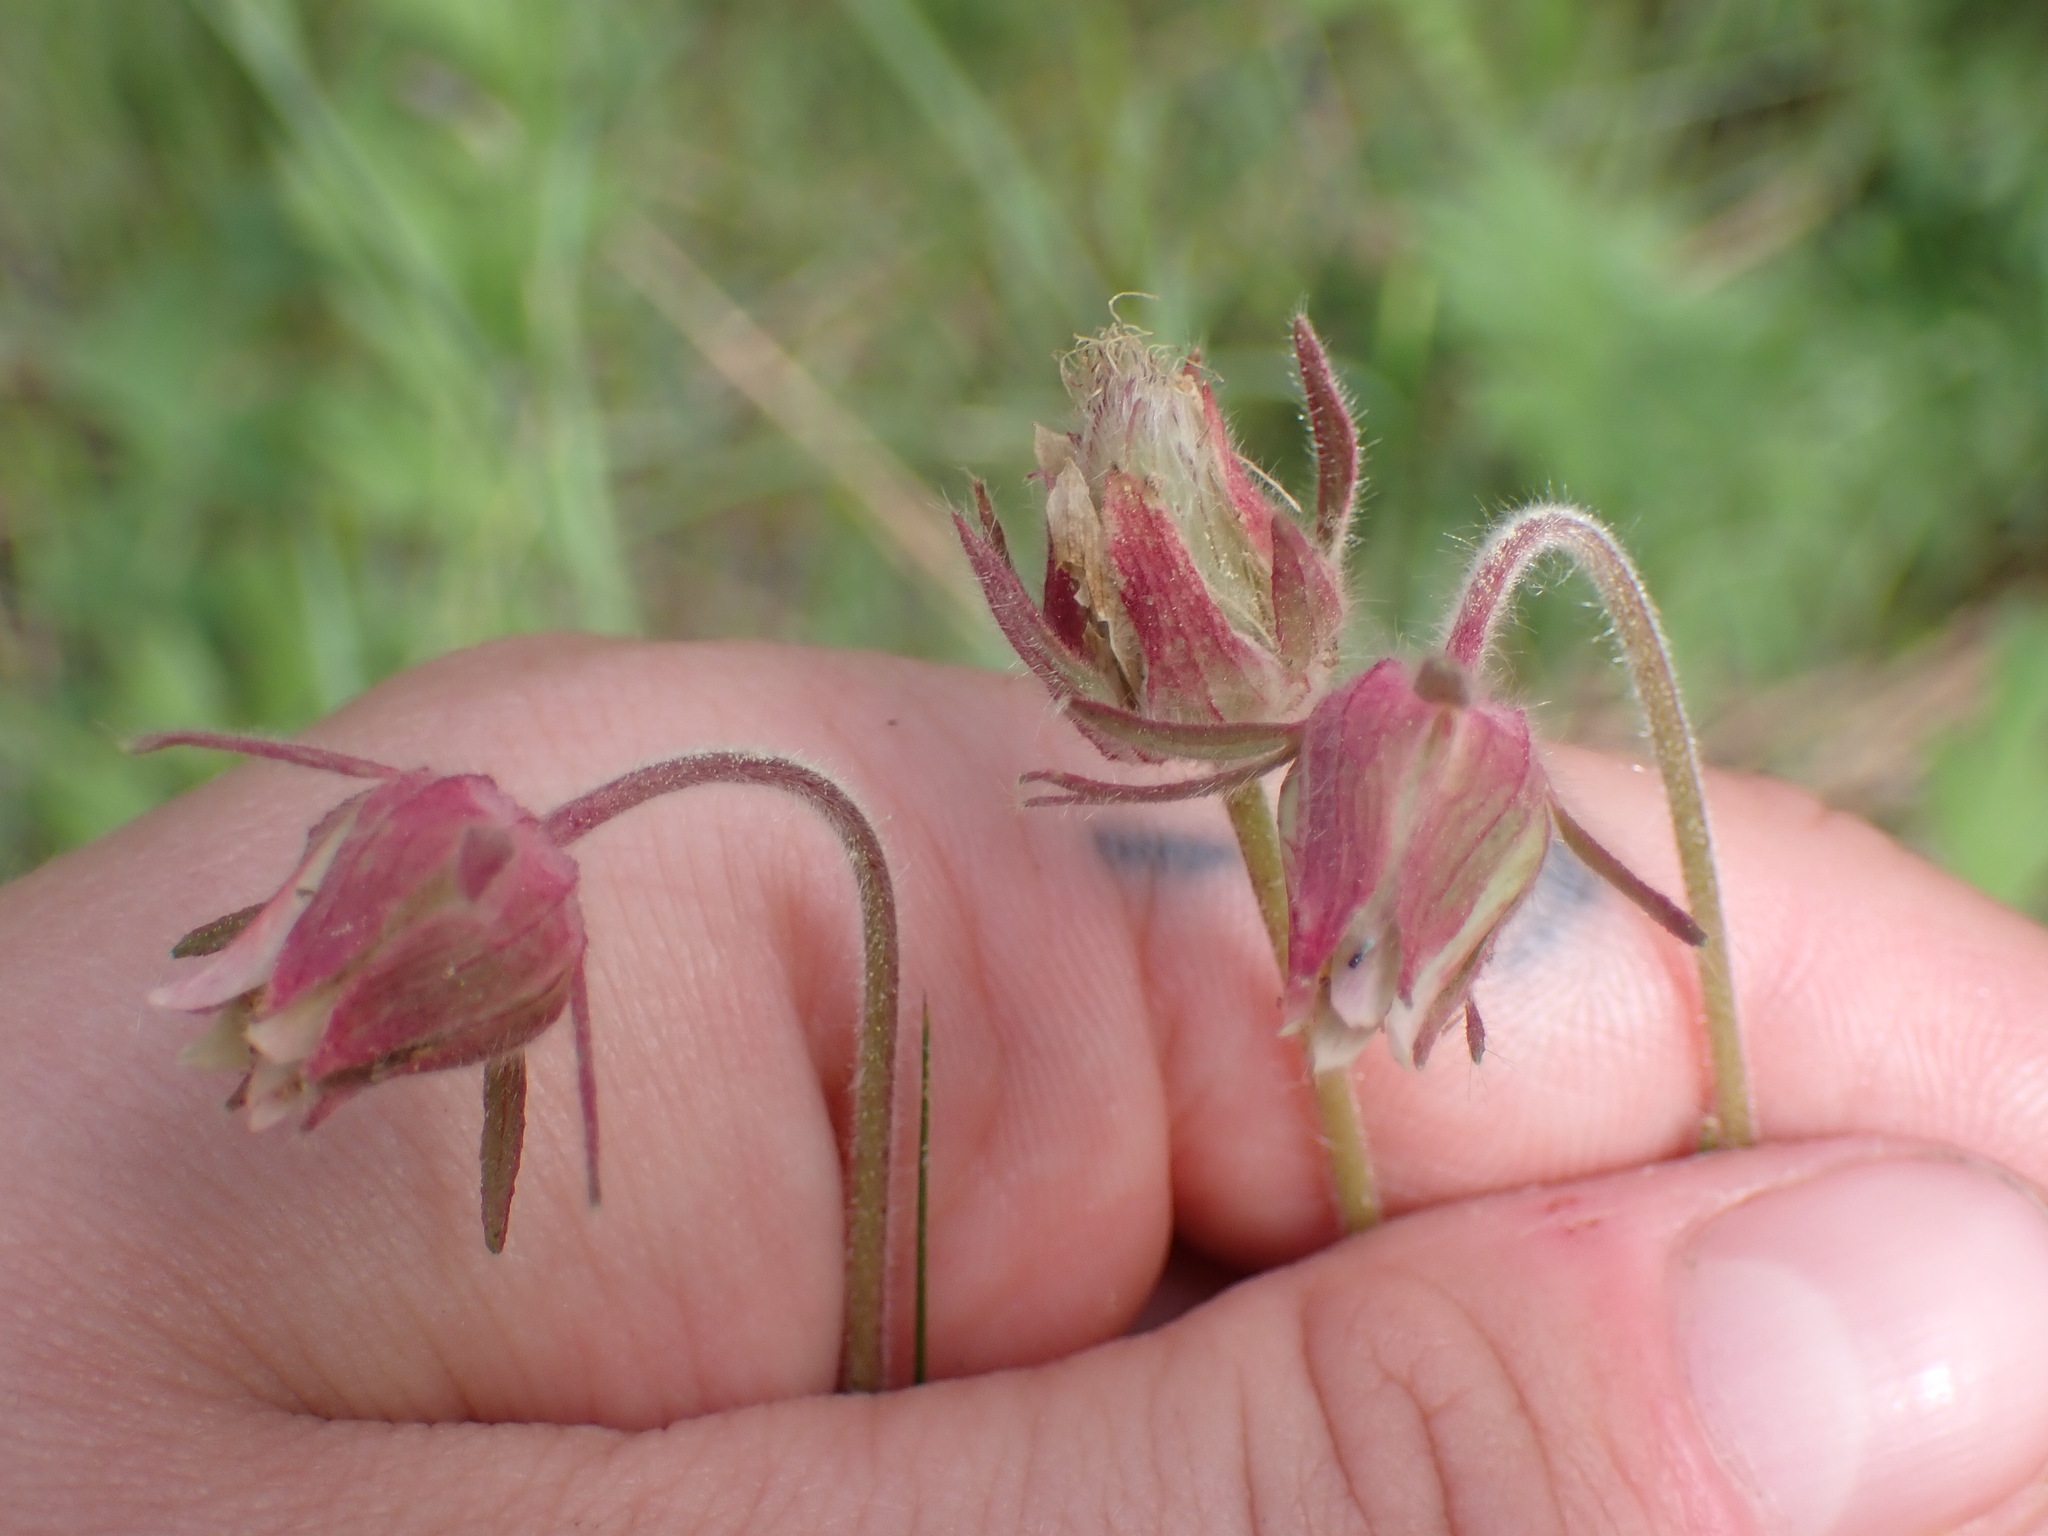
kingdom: Plantae
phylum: Tracheophyta
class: Magnoliopsida
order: Rosales
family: Rosaceae
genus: Geum
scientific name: Geum triflorum
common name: Old man's whiskers
